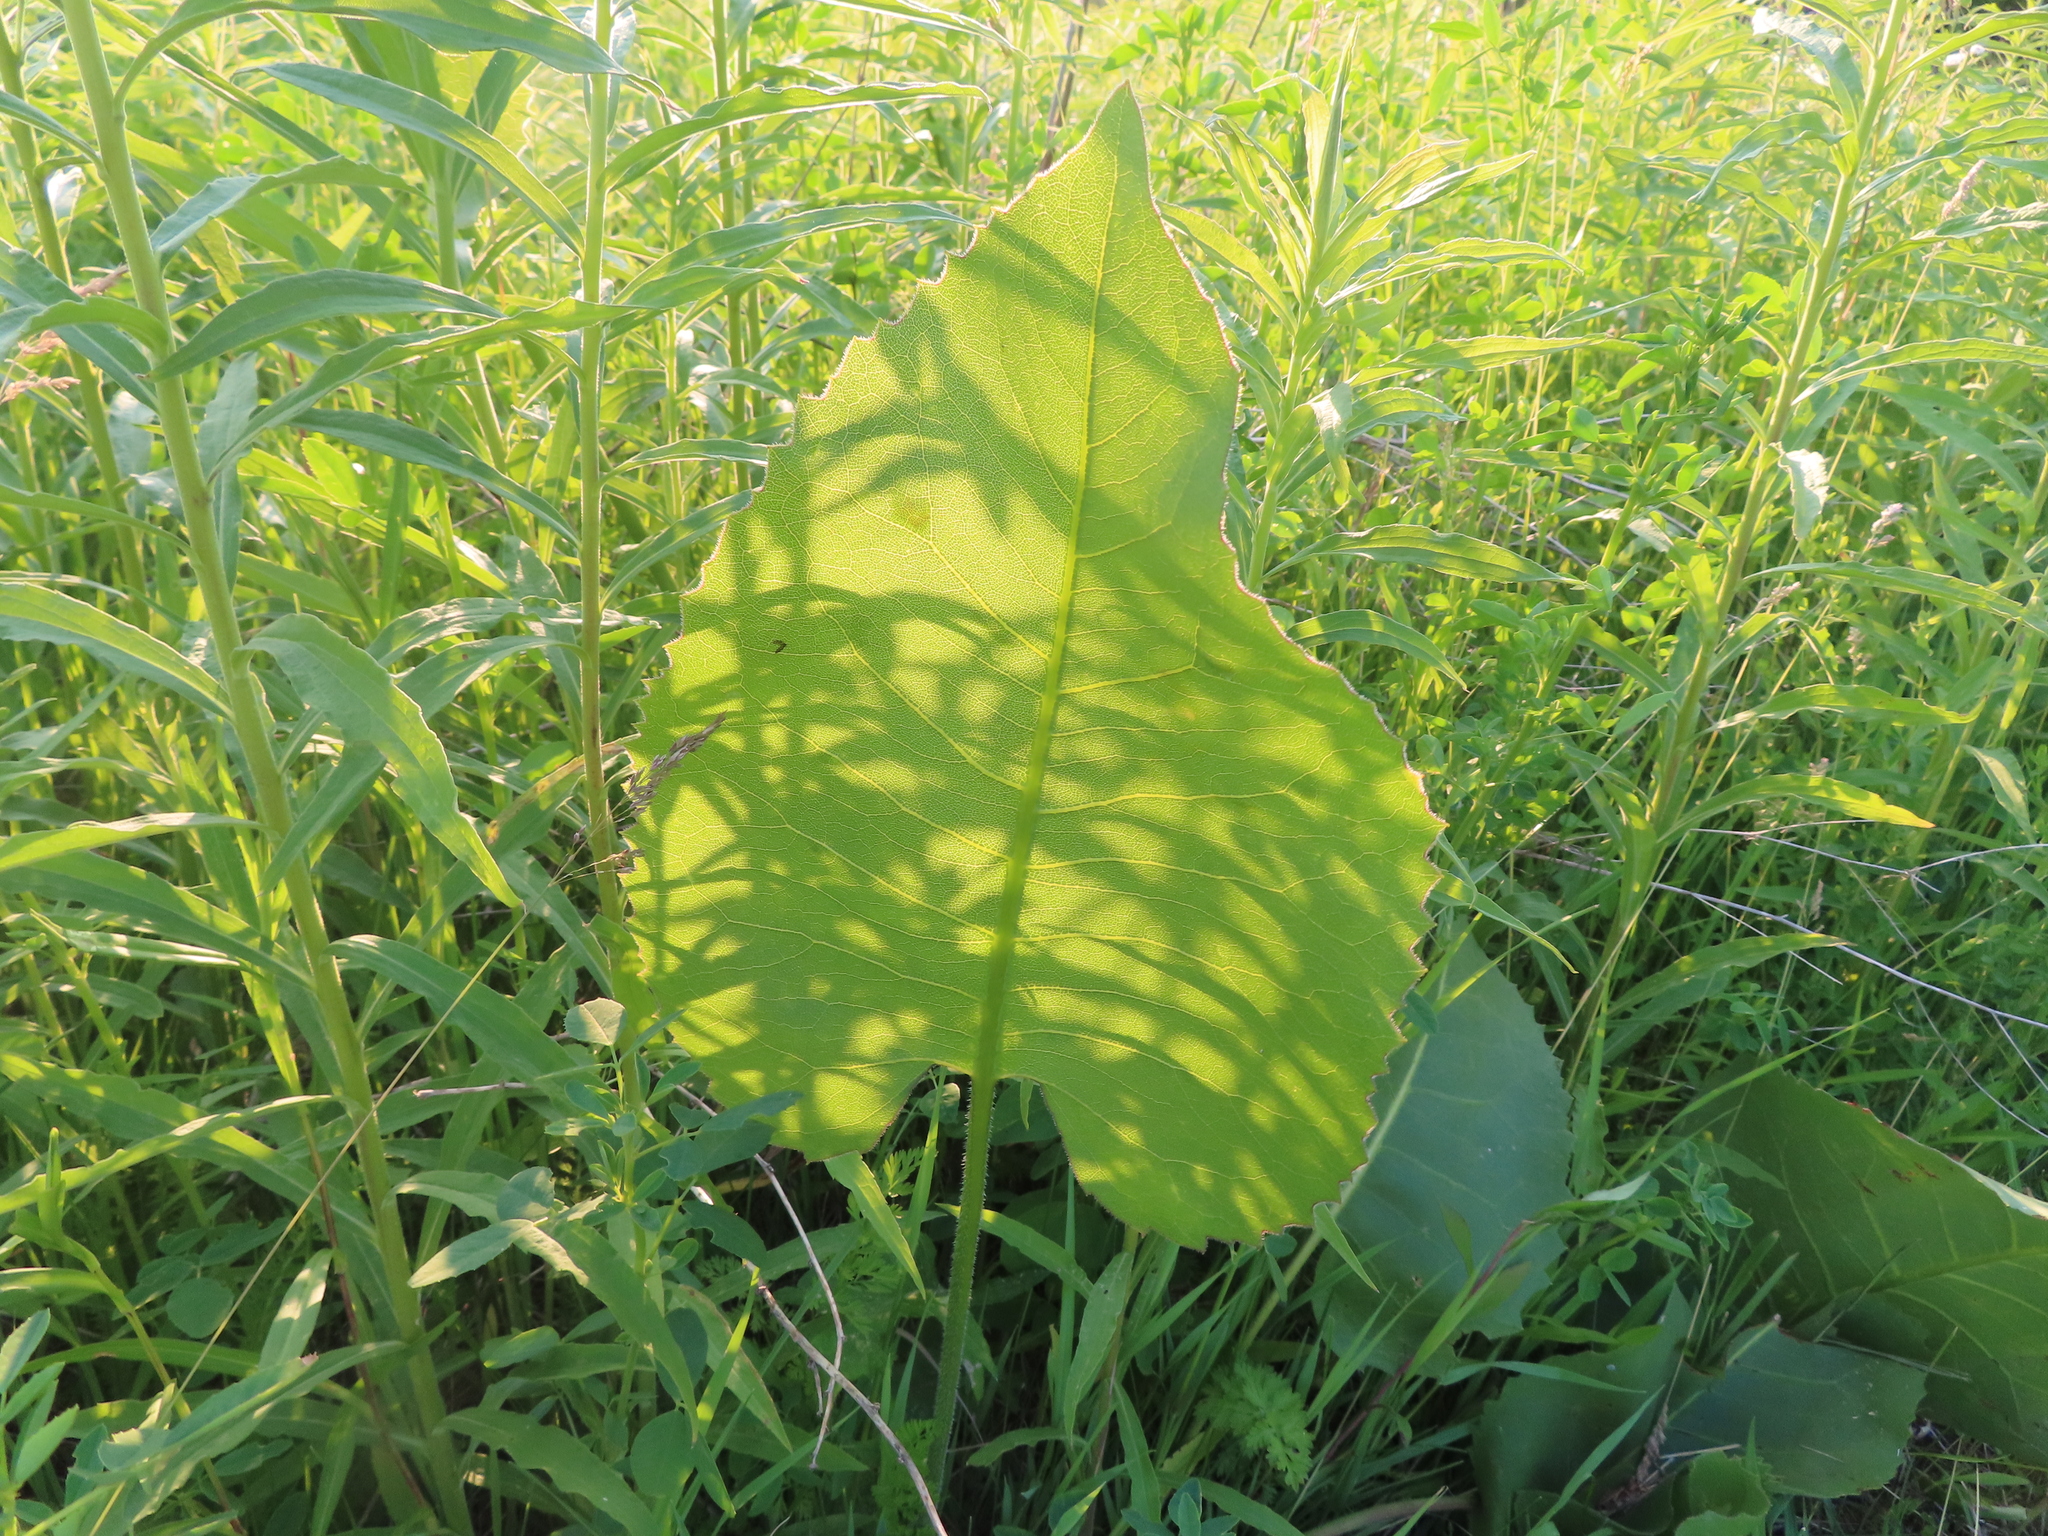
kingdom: Plantae
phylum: Tracheophyta
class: Magnoliopsida
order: Asterales
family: Asteraceae
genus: Silphium
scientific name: Silphium terebinthinaceum
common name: Basal-leaf rosinweed
